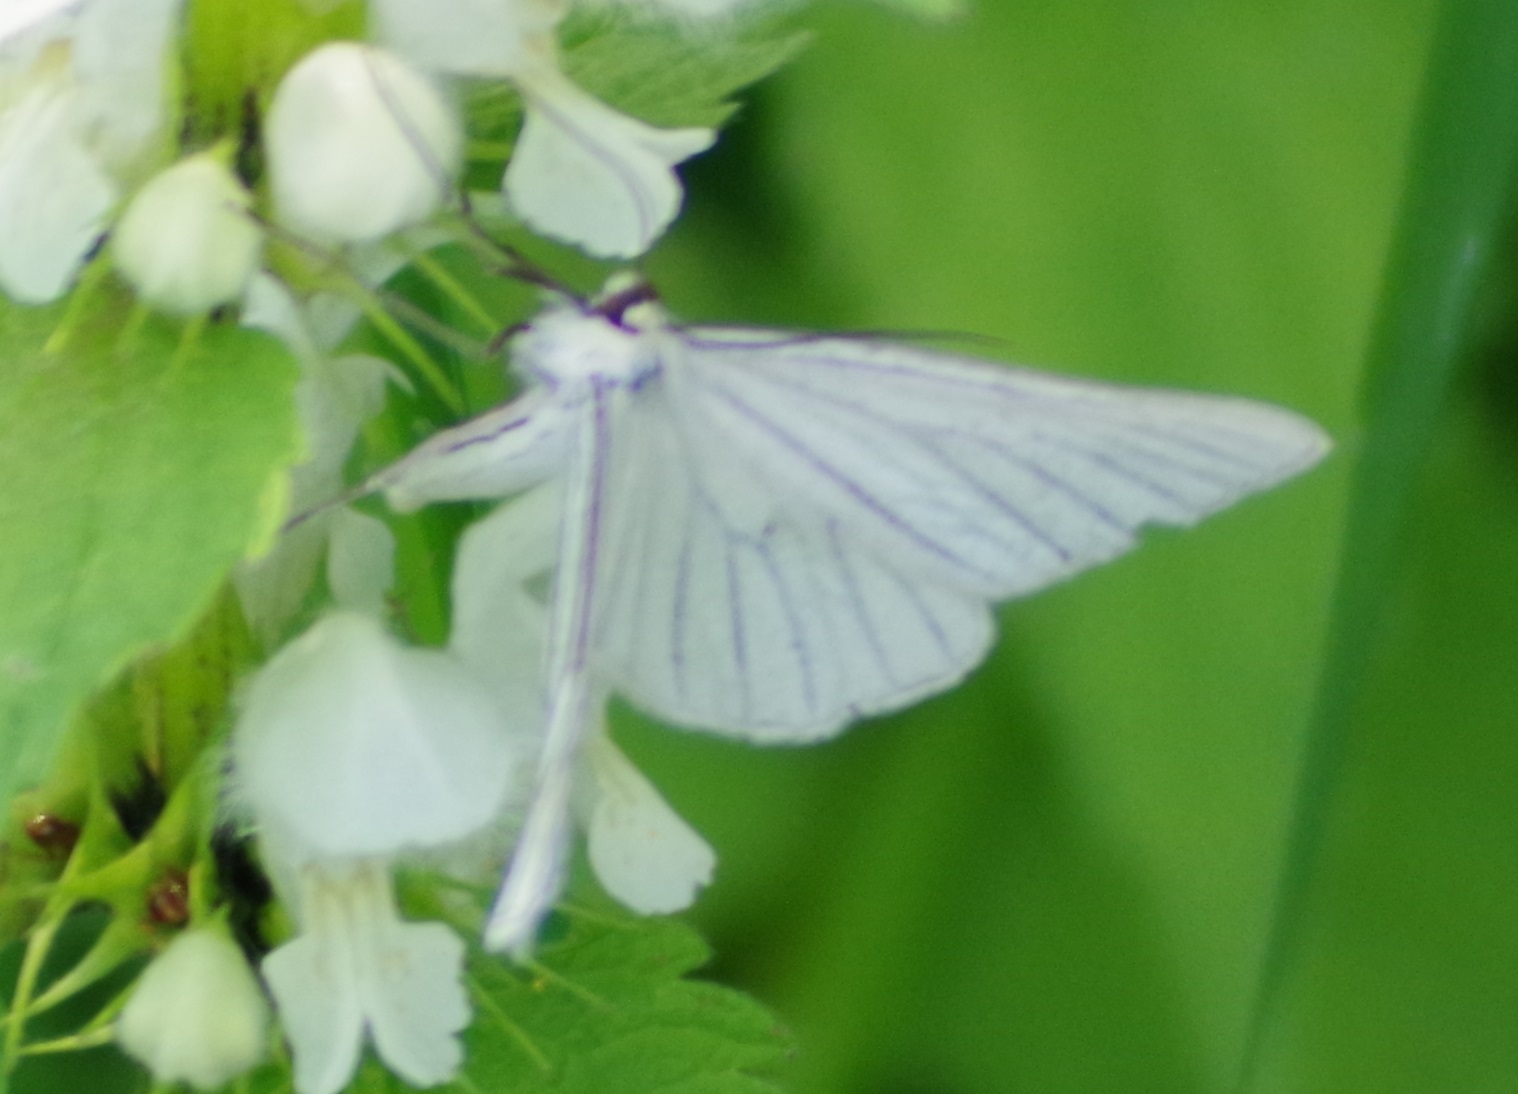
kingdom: Animalia
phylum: Arthropoda
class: Insecta
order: Lepidoptera
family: Geometridae
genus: Siona
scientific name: Siona lineata
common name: Black-veined moth
